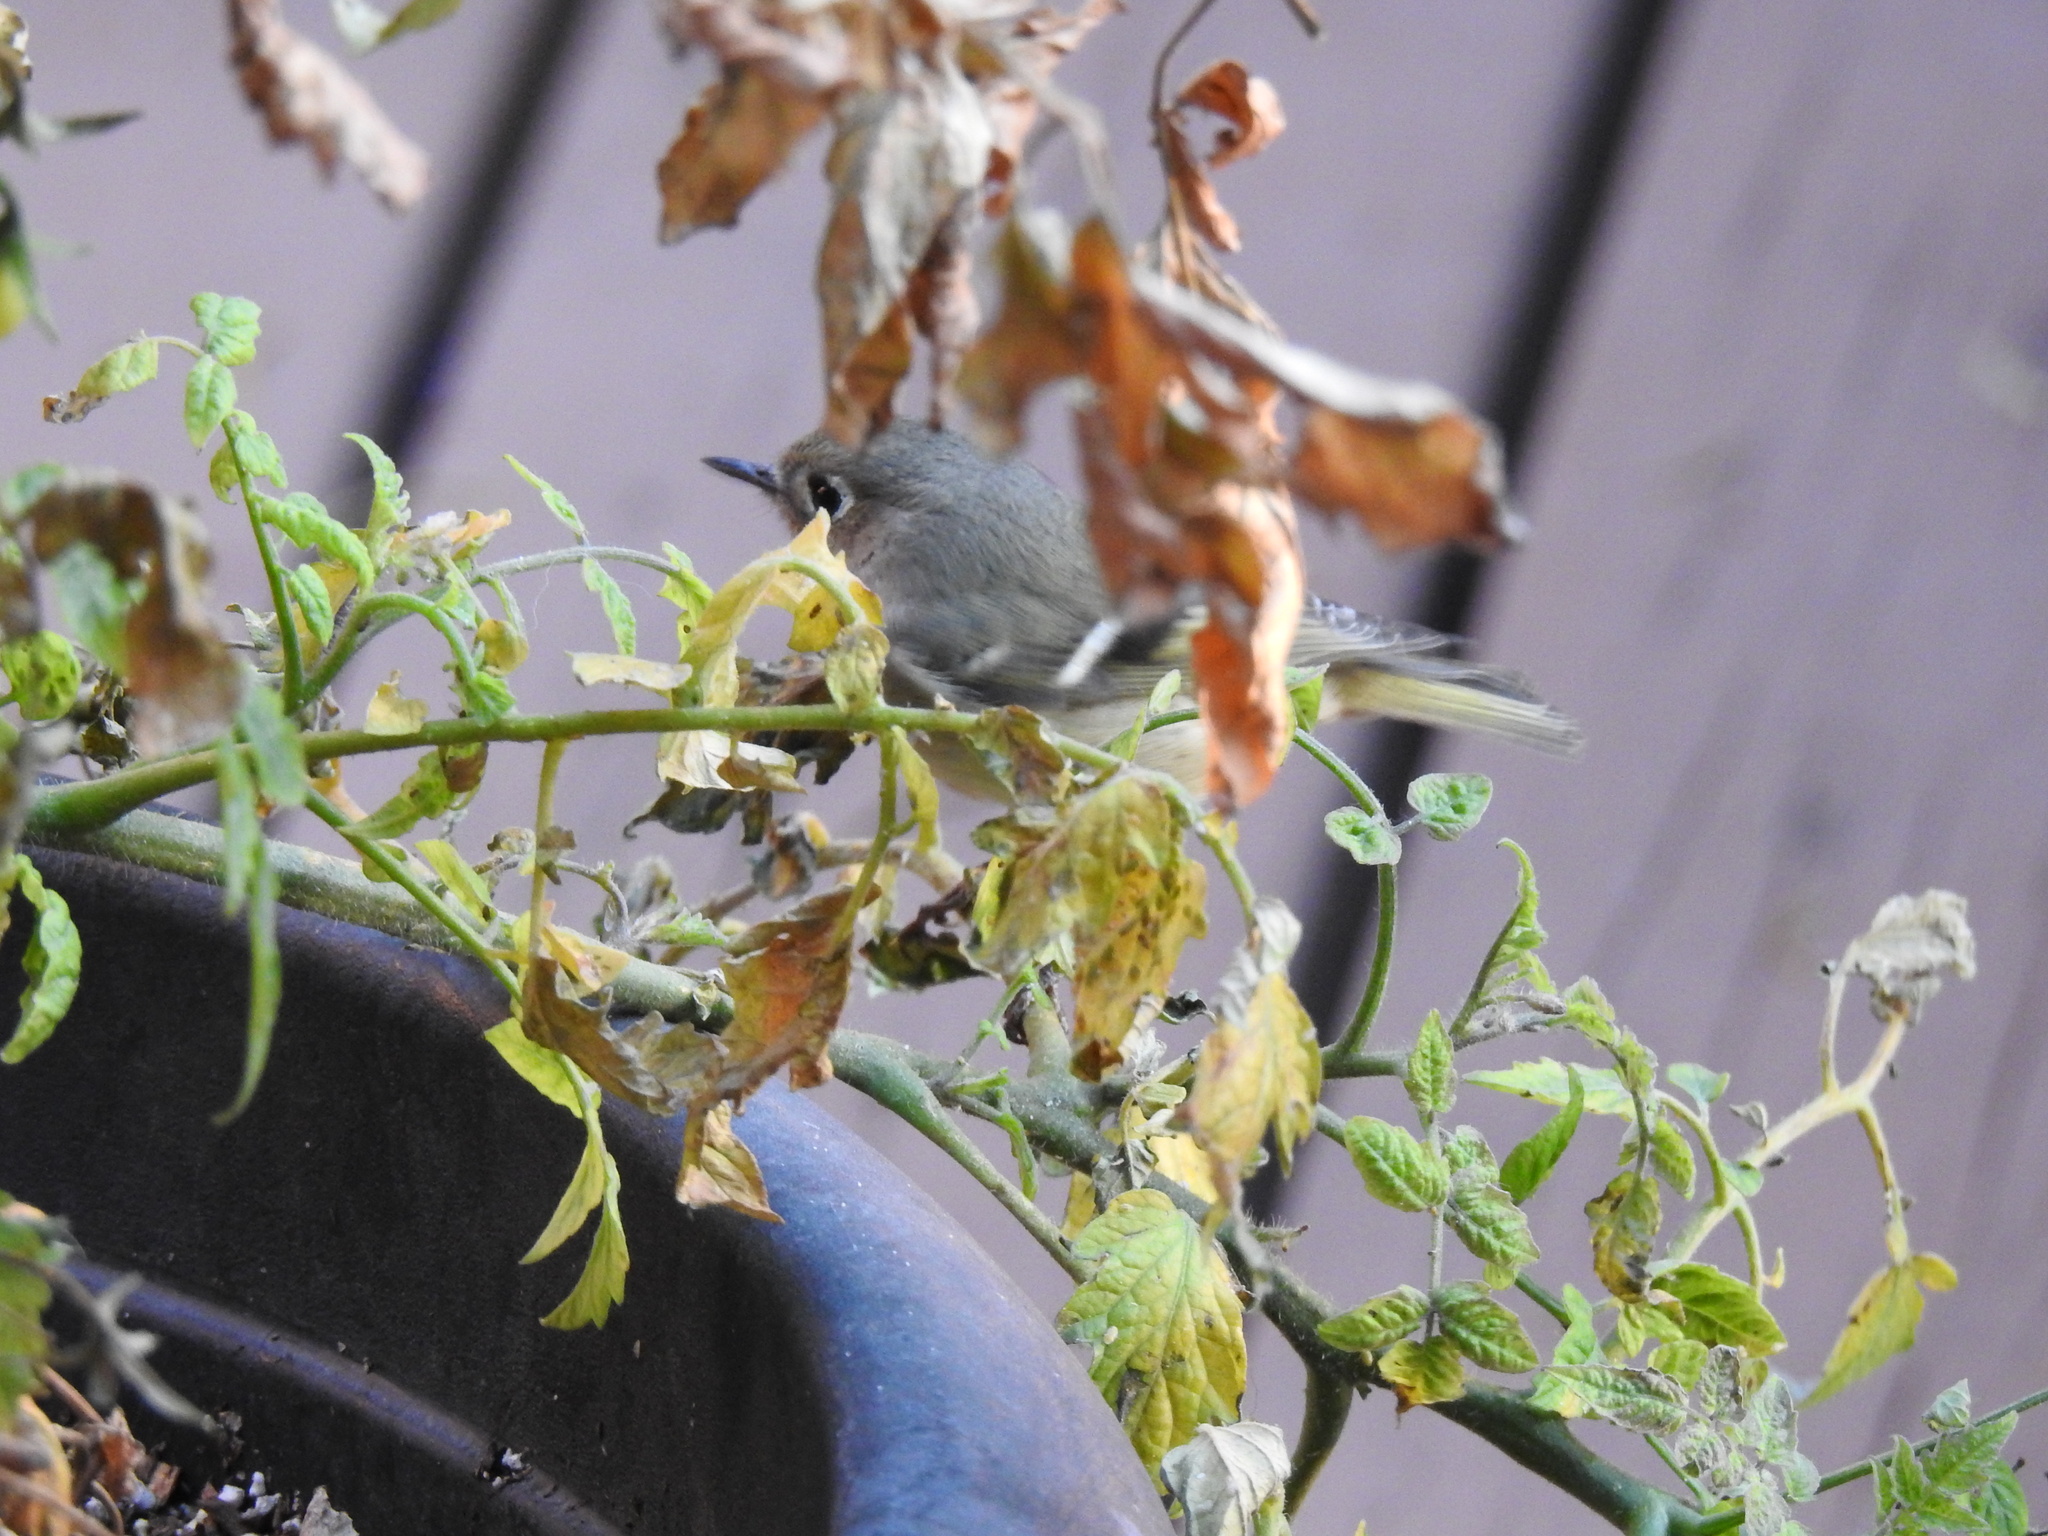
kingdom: Animalia
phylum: Chordata
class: Aves
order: Passeriformes
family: Regulidae
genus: Regulus
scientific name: Regulus calendula
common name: Ruby-crowned kinglet
